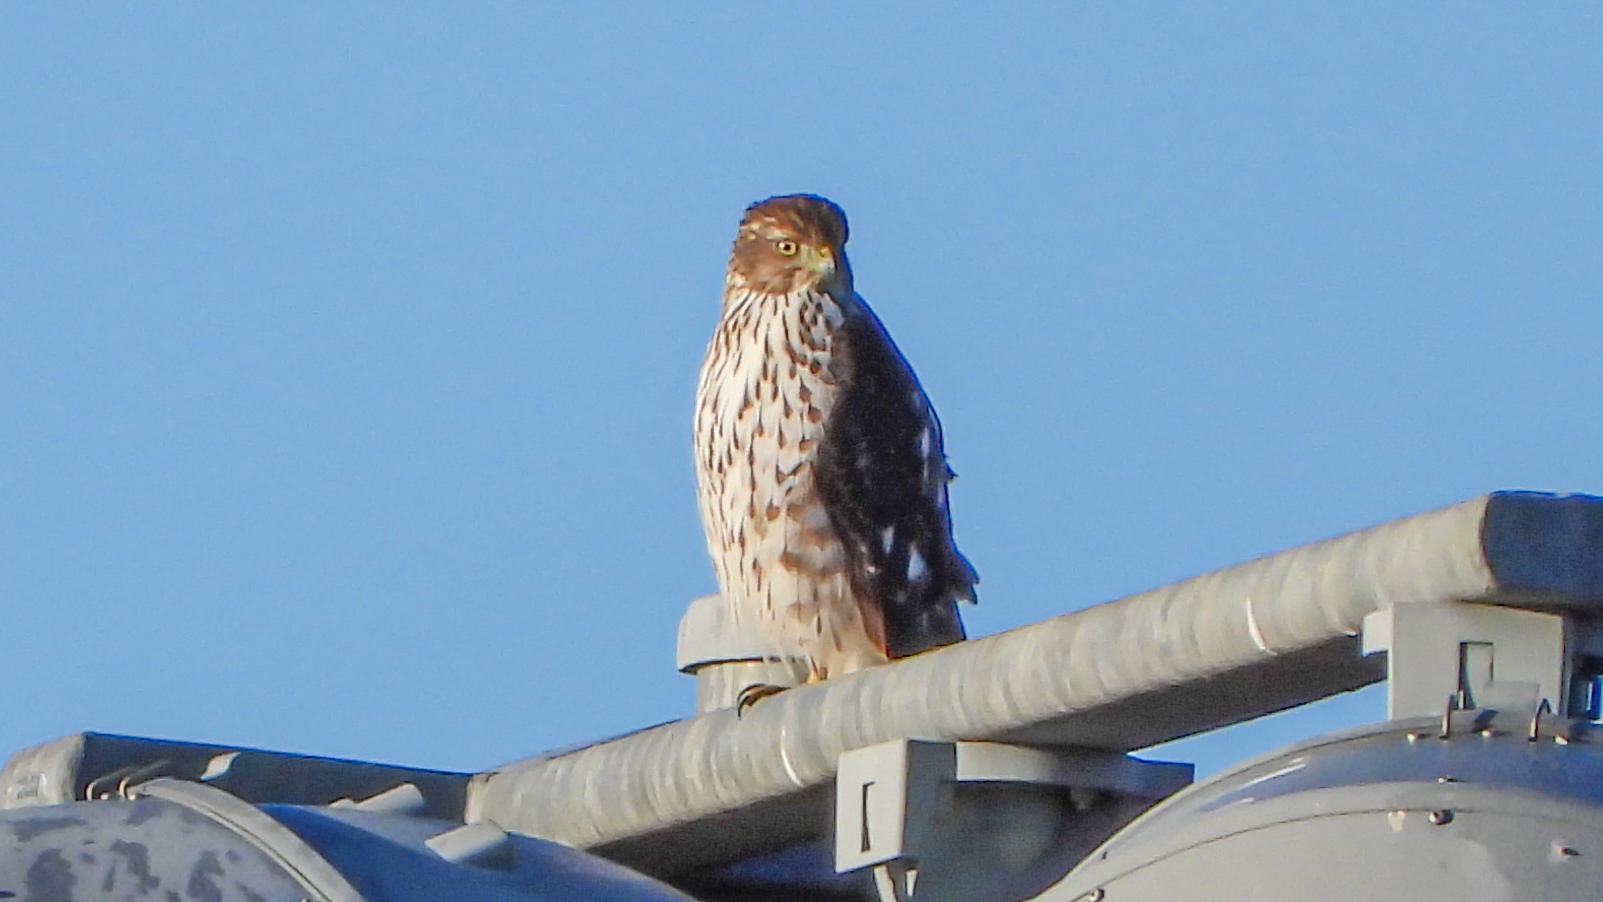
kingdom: Animalia
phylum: Chordata
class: Aves
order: Accipitriformes
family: Accipitridae
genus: Accipiter
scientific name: Accipiter cooperii
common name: Cooper's hawk
